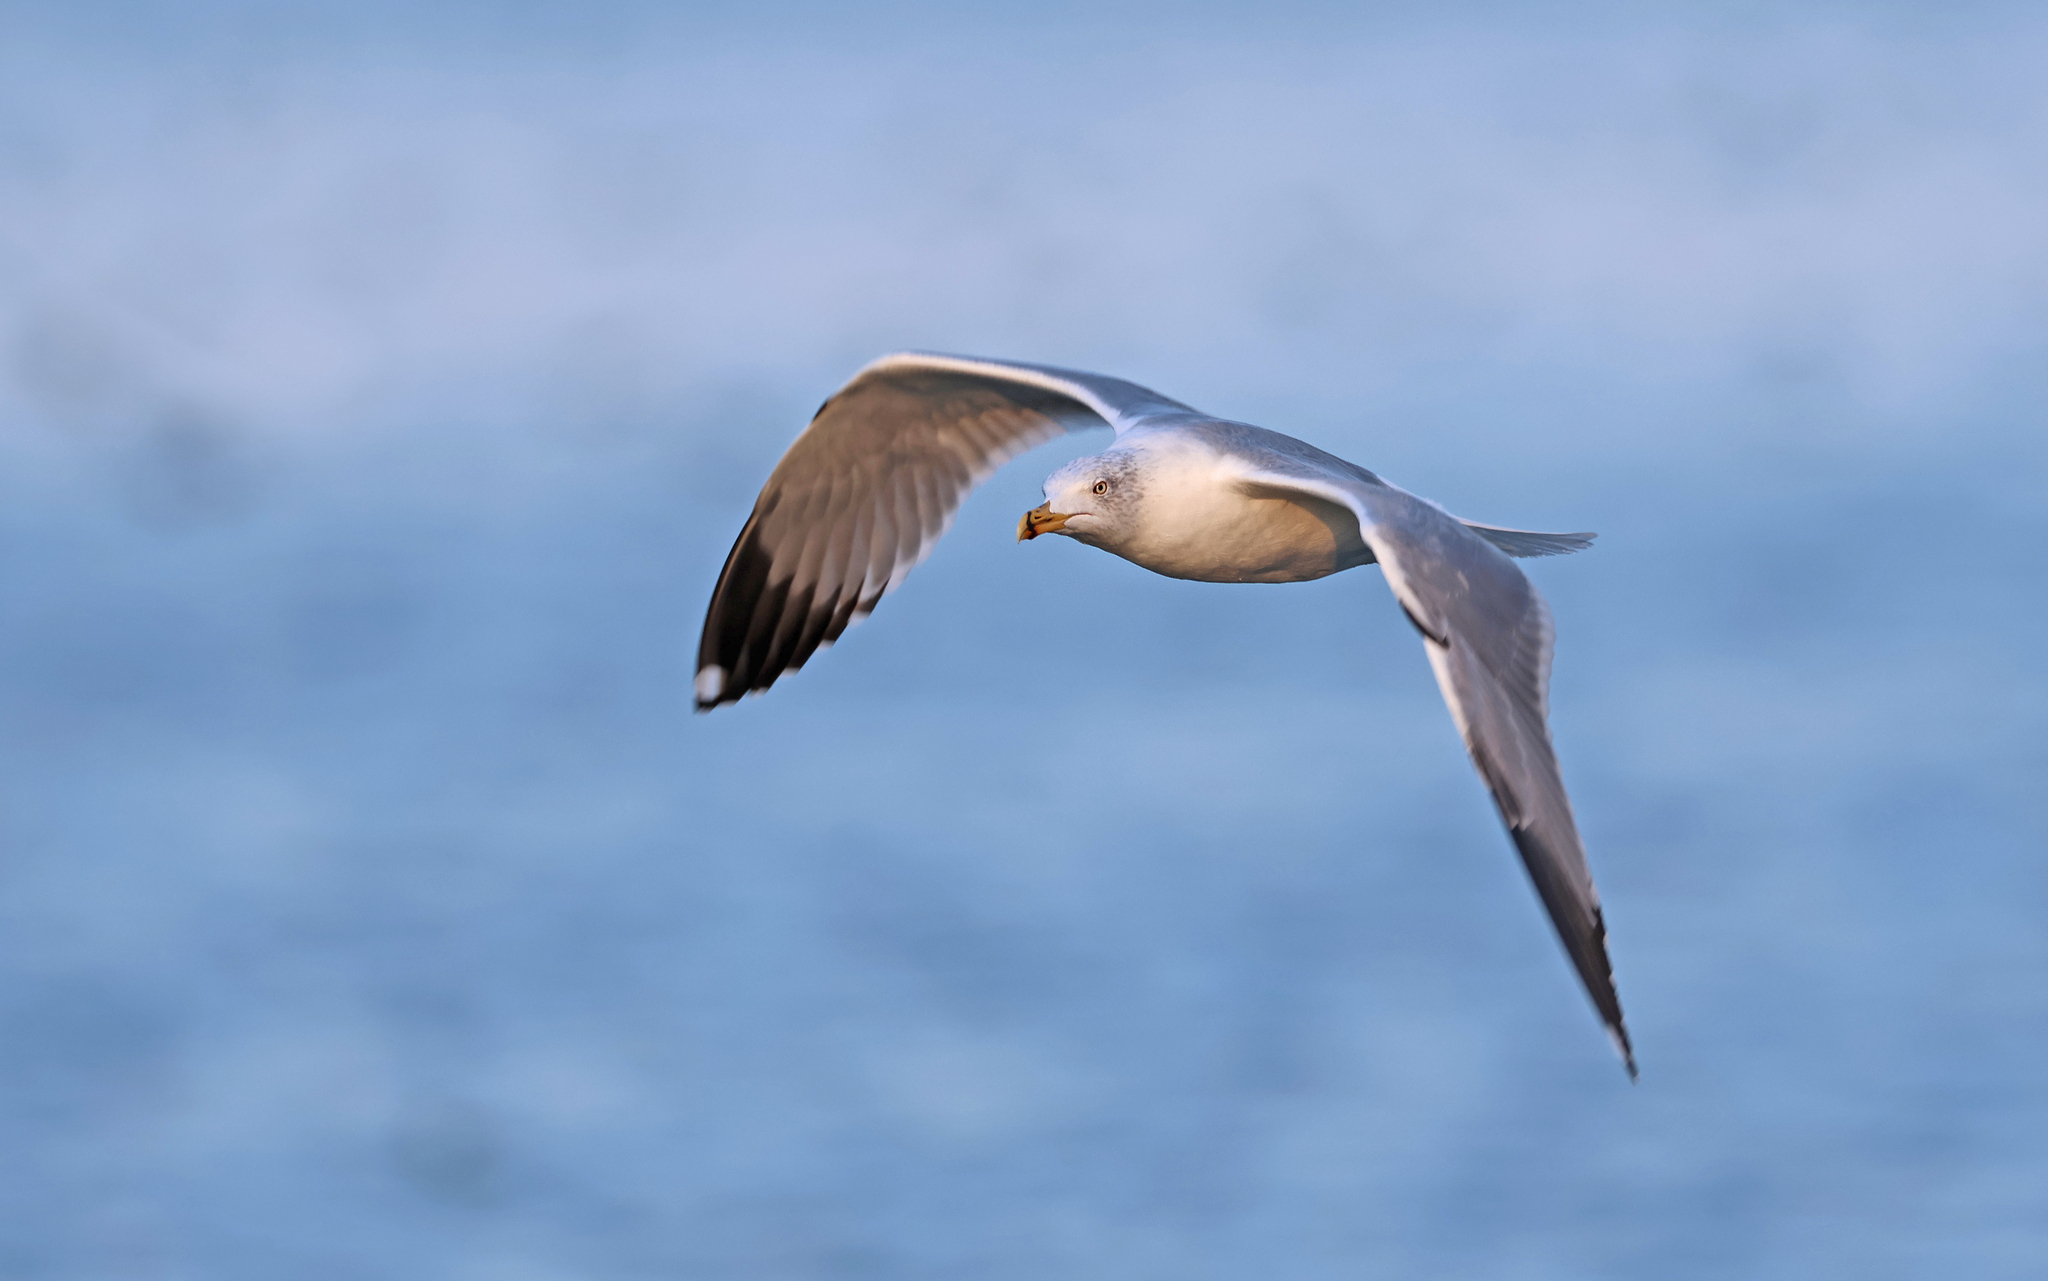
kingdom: Animalia
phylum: Chordata
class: Aves
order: Charadriiformes
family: Laridae
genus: Larus
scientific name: Larus michahellis
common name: Yellow-legged gull
